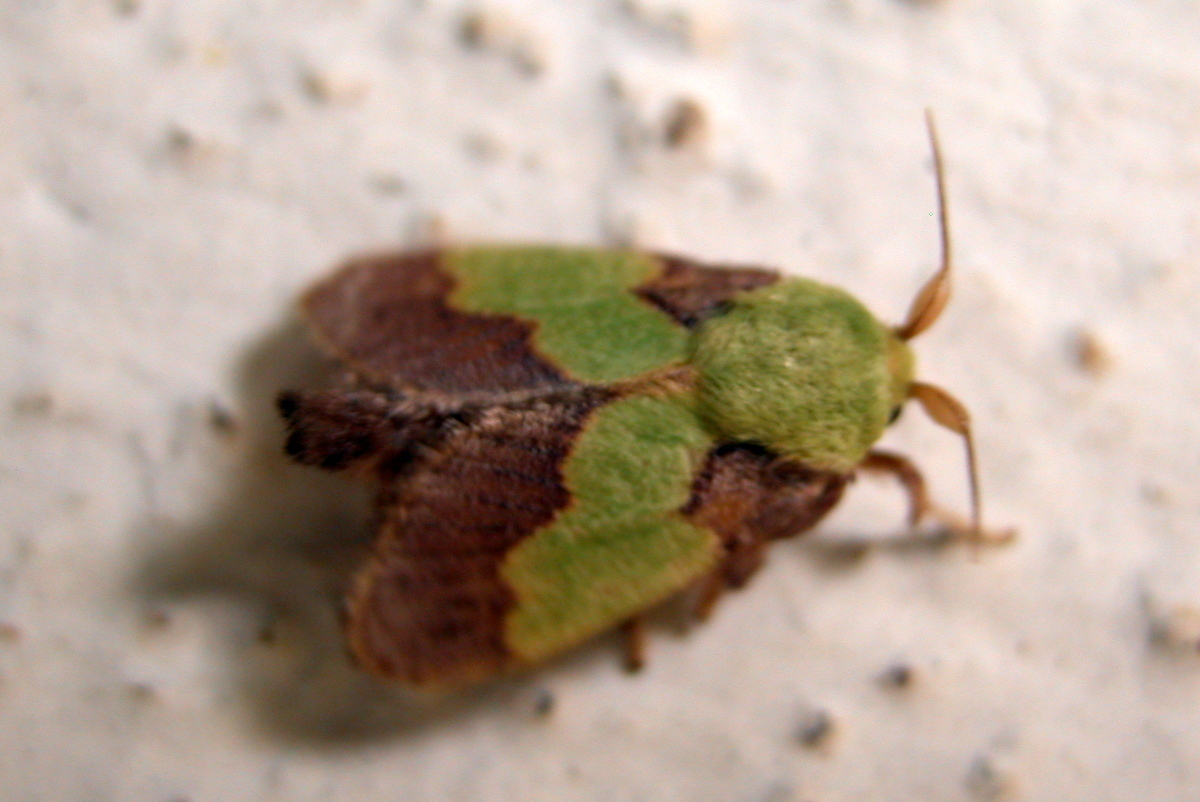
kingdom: Animalia
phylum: Arthropoda
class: Insecta
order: Lepidoptera
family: Limacodidae
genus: Aergina
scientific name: Aergina hilaris
